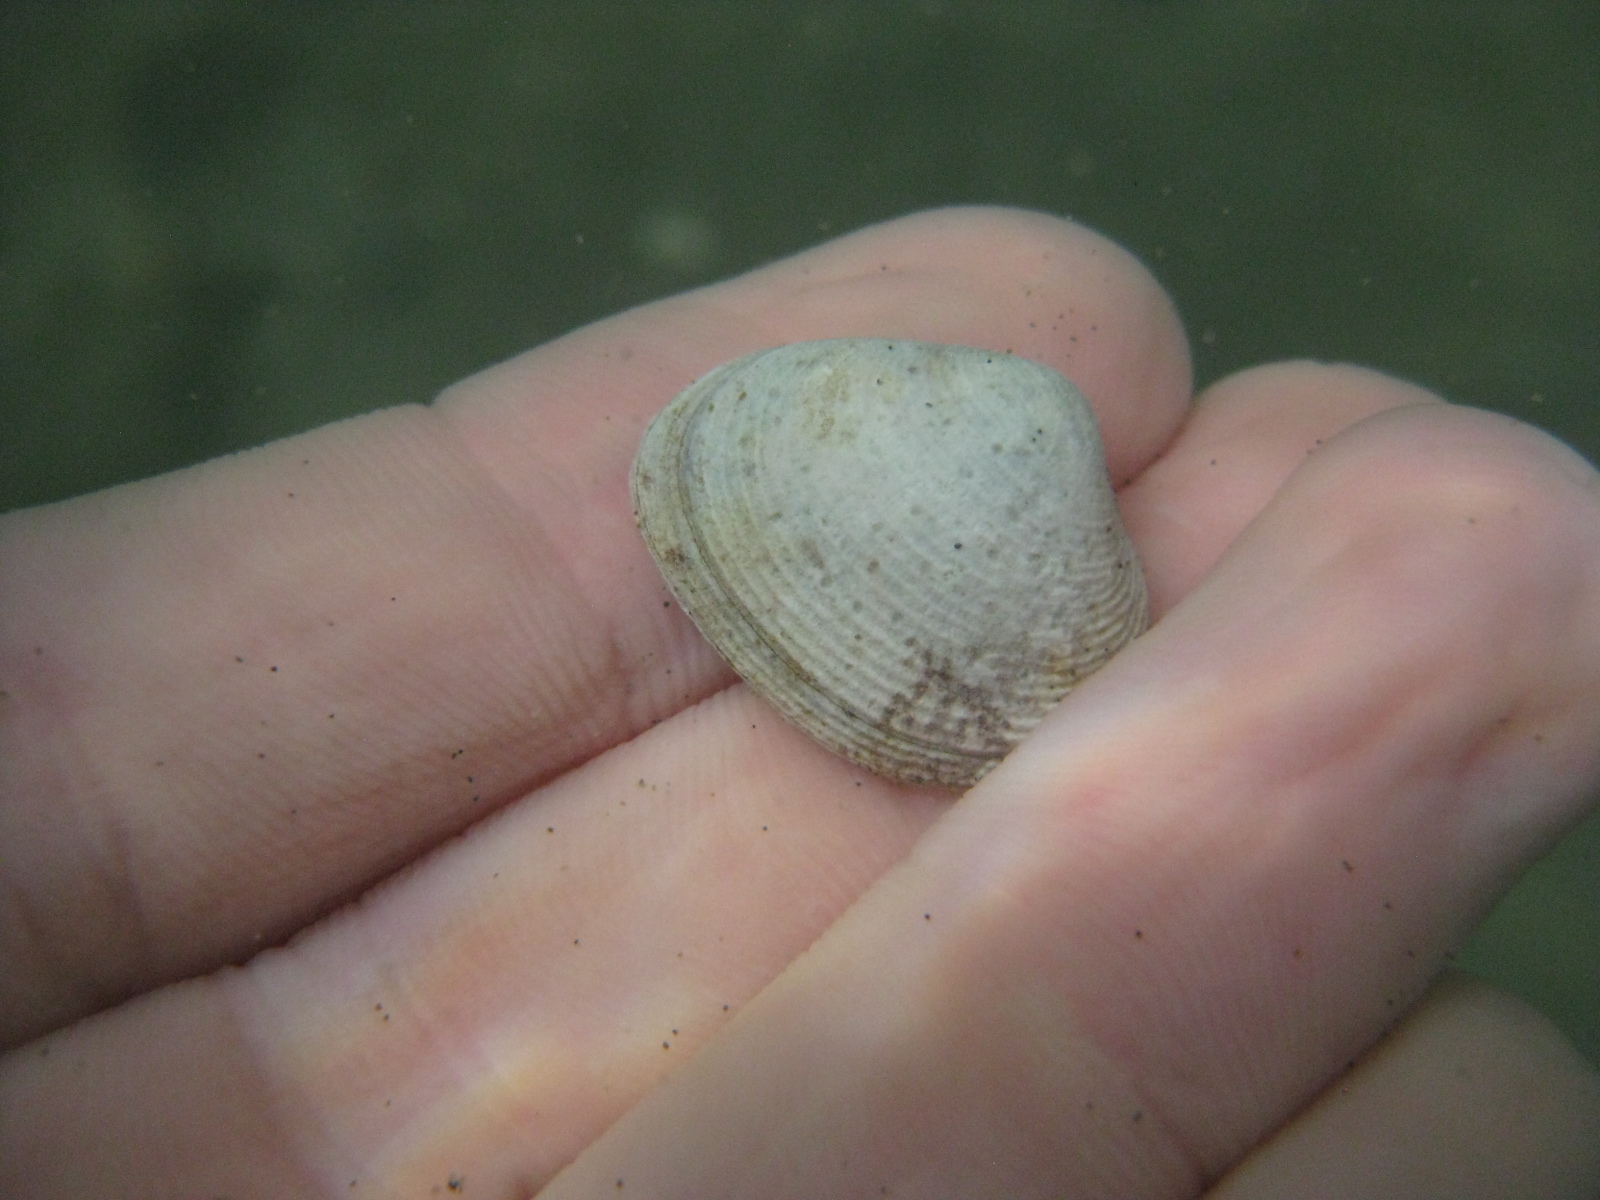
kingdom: Animalia
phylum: Mollusca
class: Bivalvia
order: Venerida
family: Veneridae
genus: Tawera
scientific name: Tawera spissa
